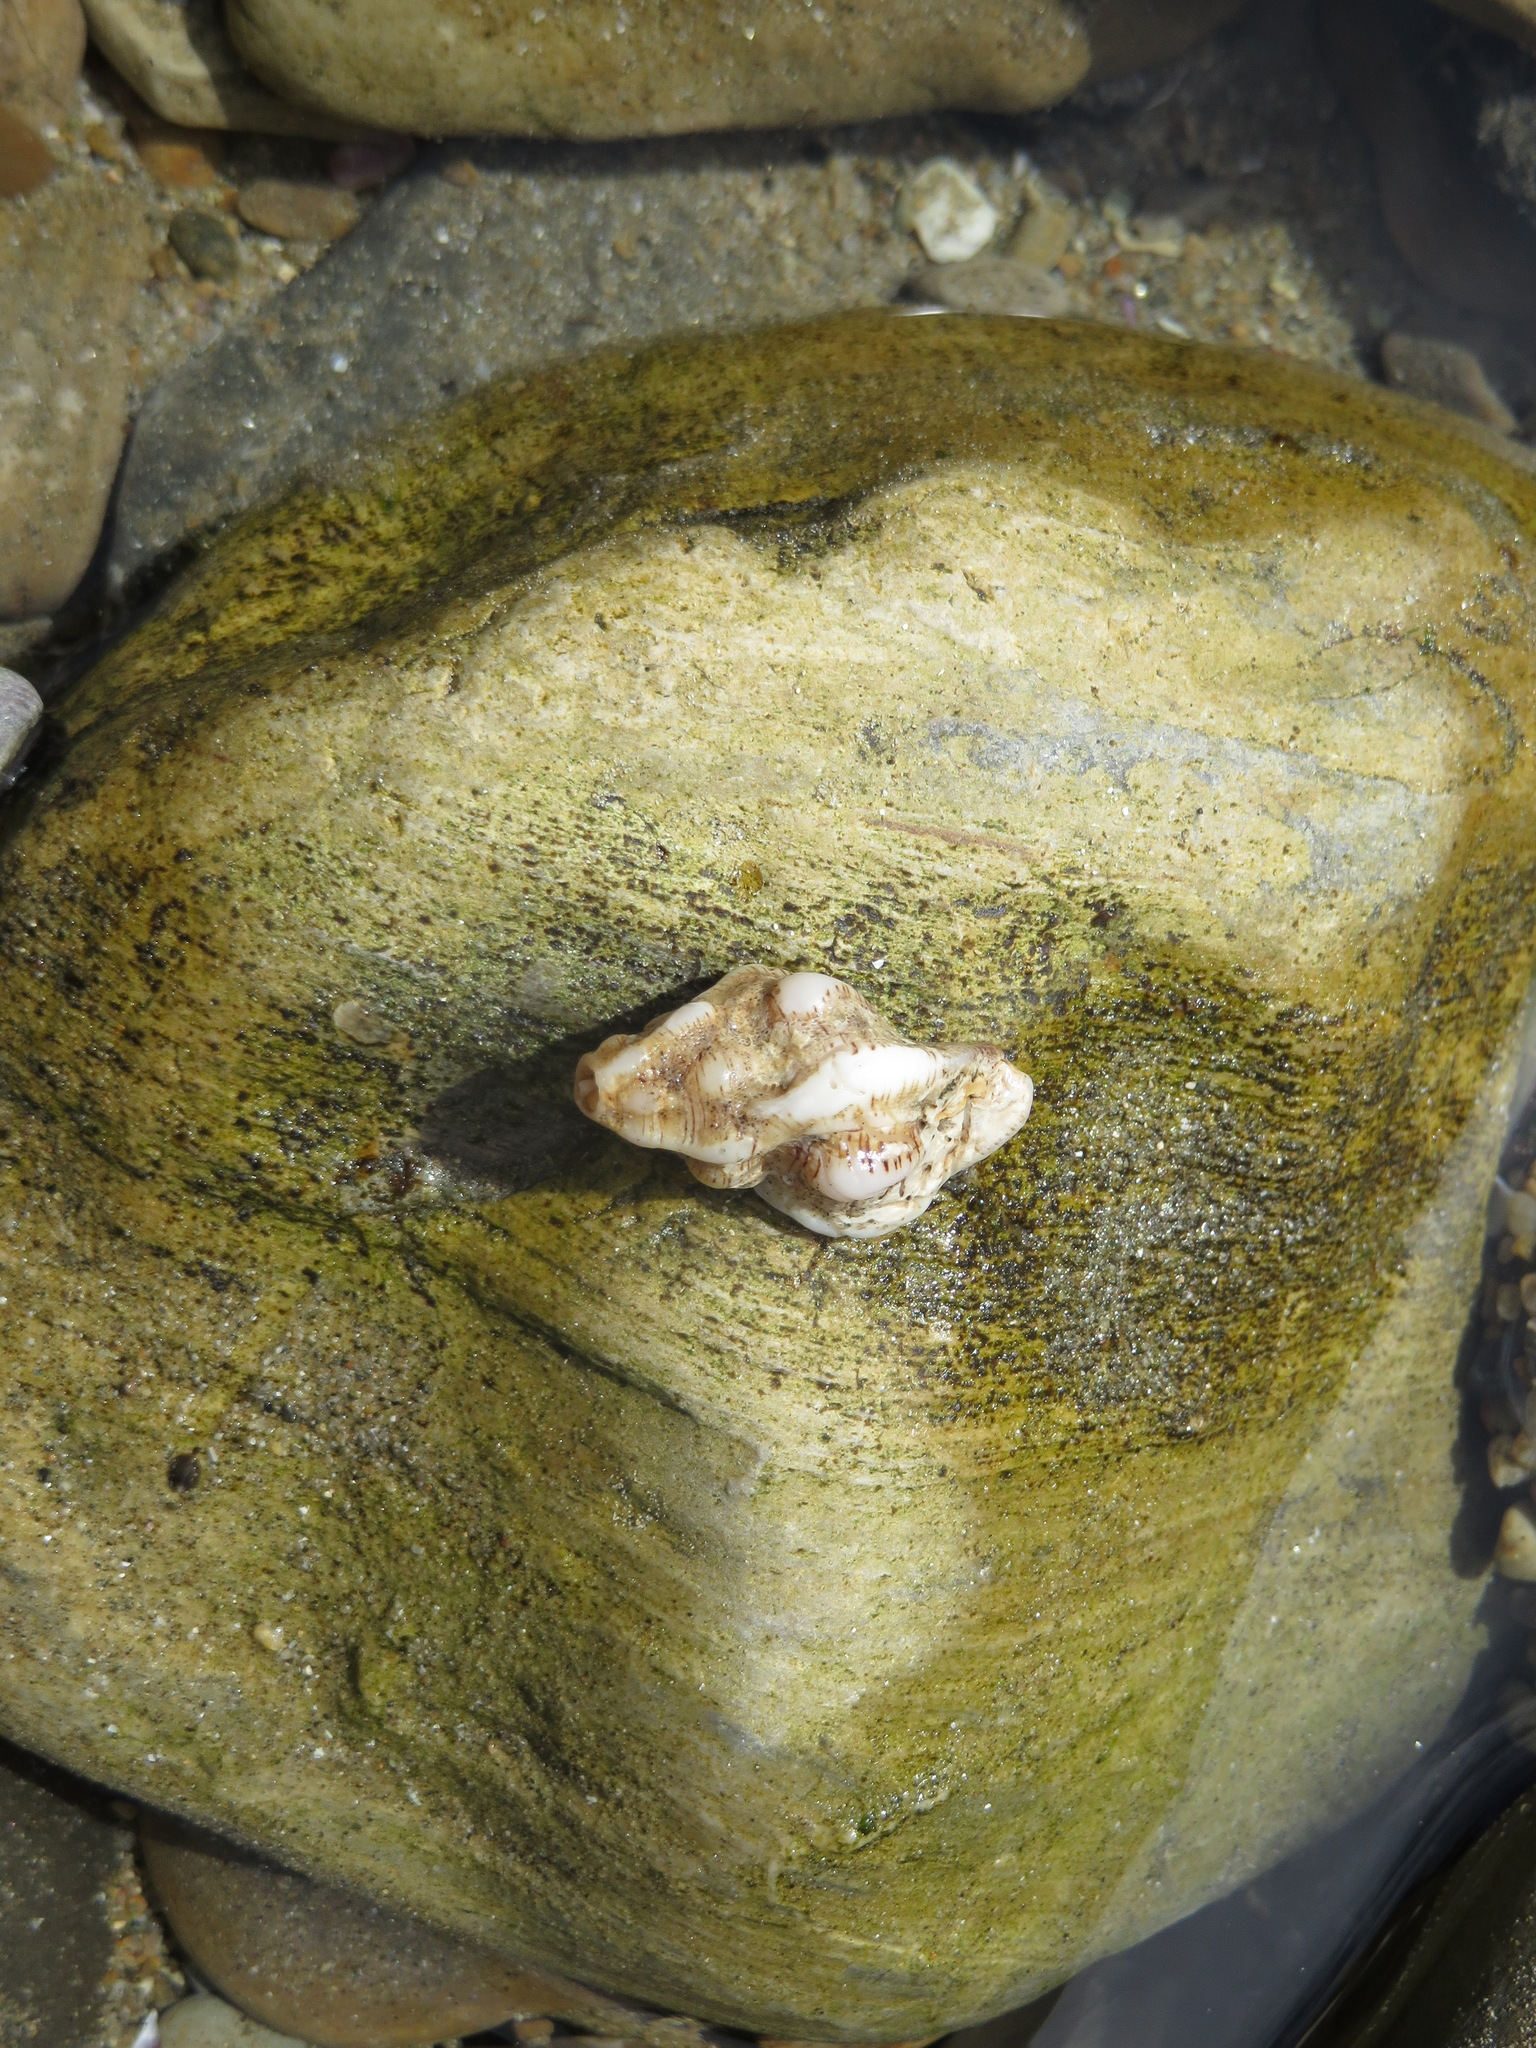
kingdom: Animalia
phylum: Mollusca
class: Gastropoda
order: Neogastropoda
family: Muricidae
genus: Pteropurpura
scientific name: Pteropurpura festiva
